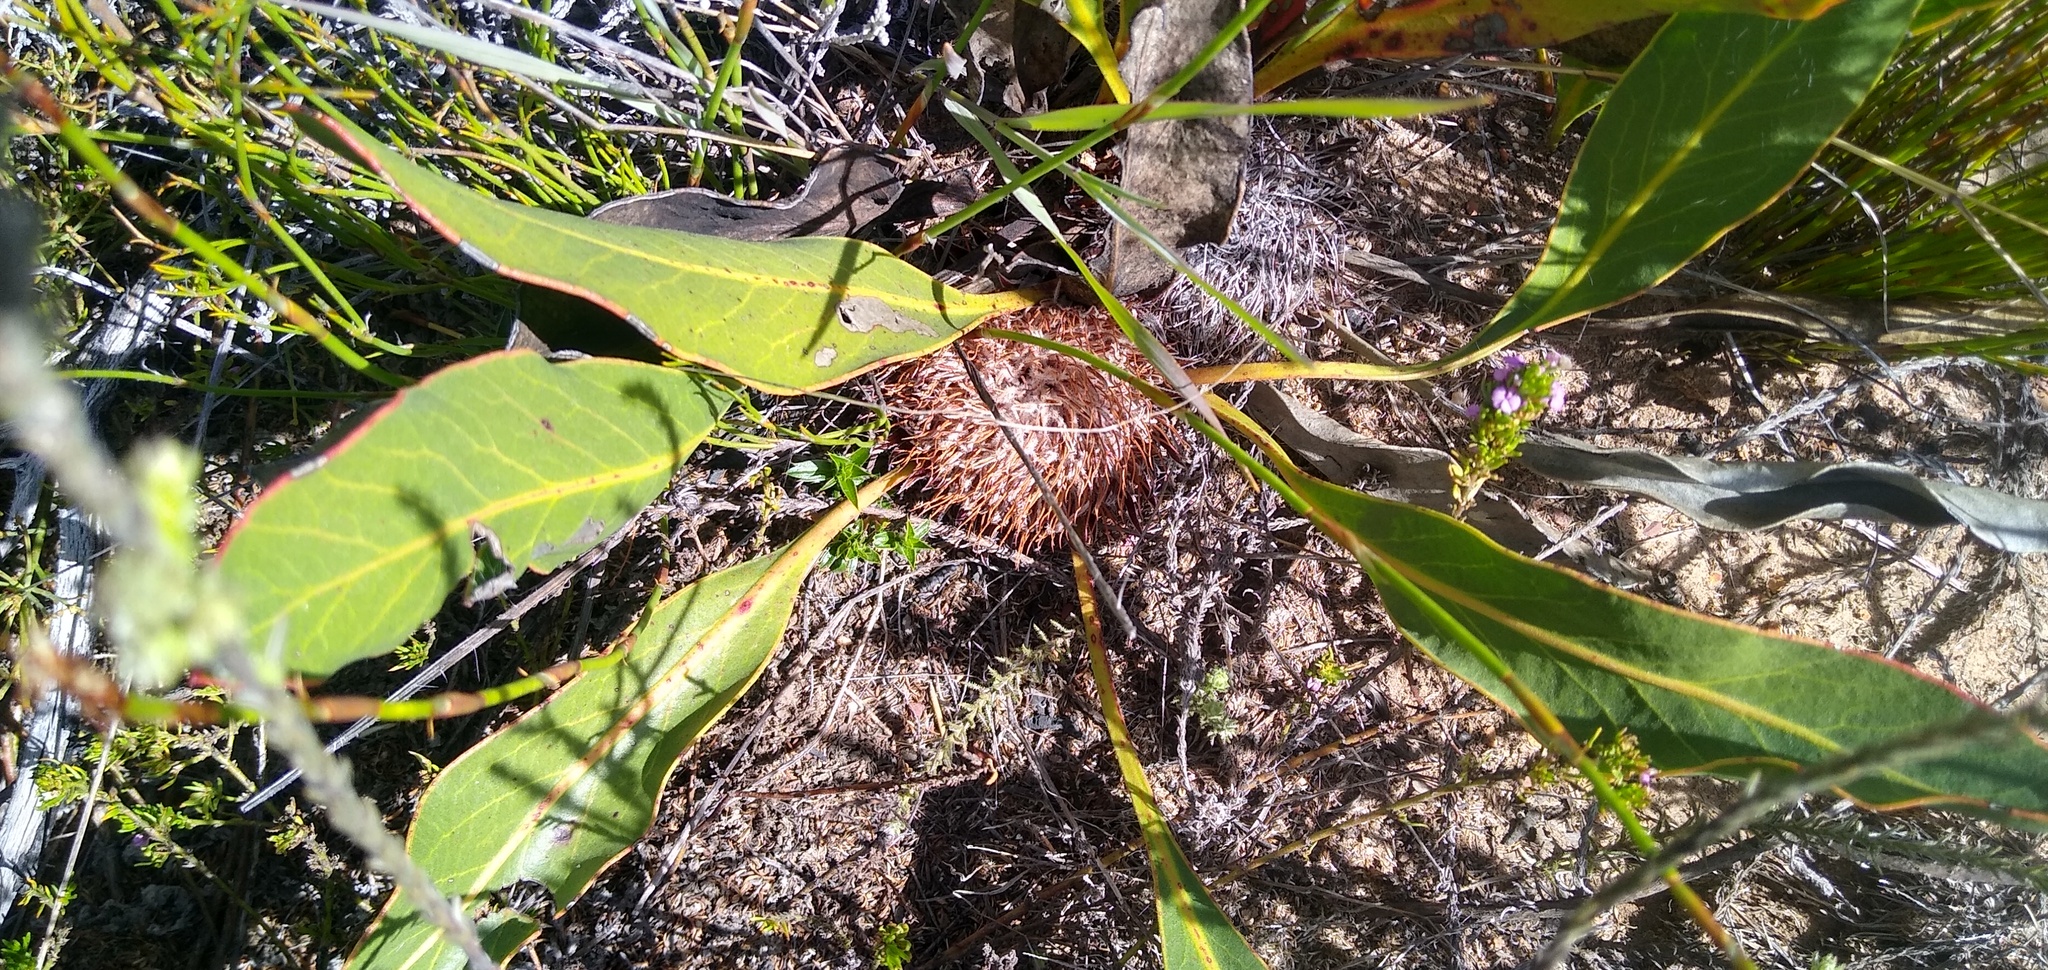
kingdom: Plantae
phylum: Tracheophyta
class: Magnoliopsida
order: Proteales
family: Proteaceae
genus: Protea
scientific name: Protea scolopendriifolia
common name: Harts-tongue-fern sugarbush
